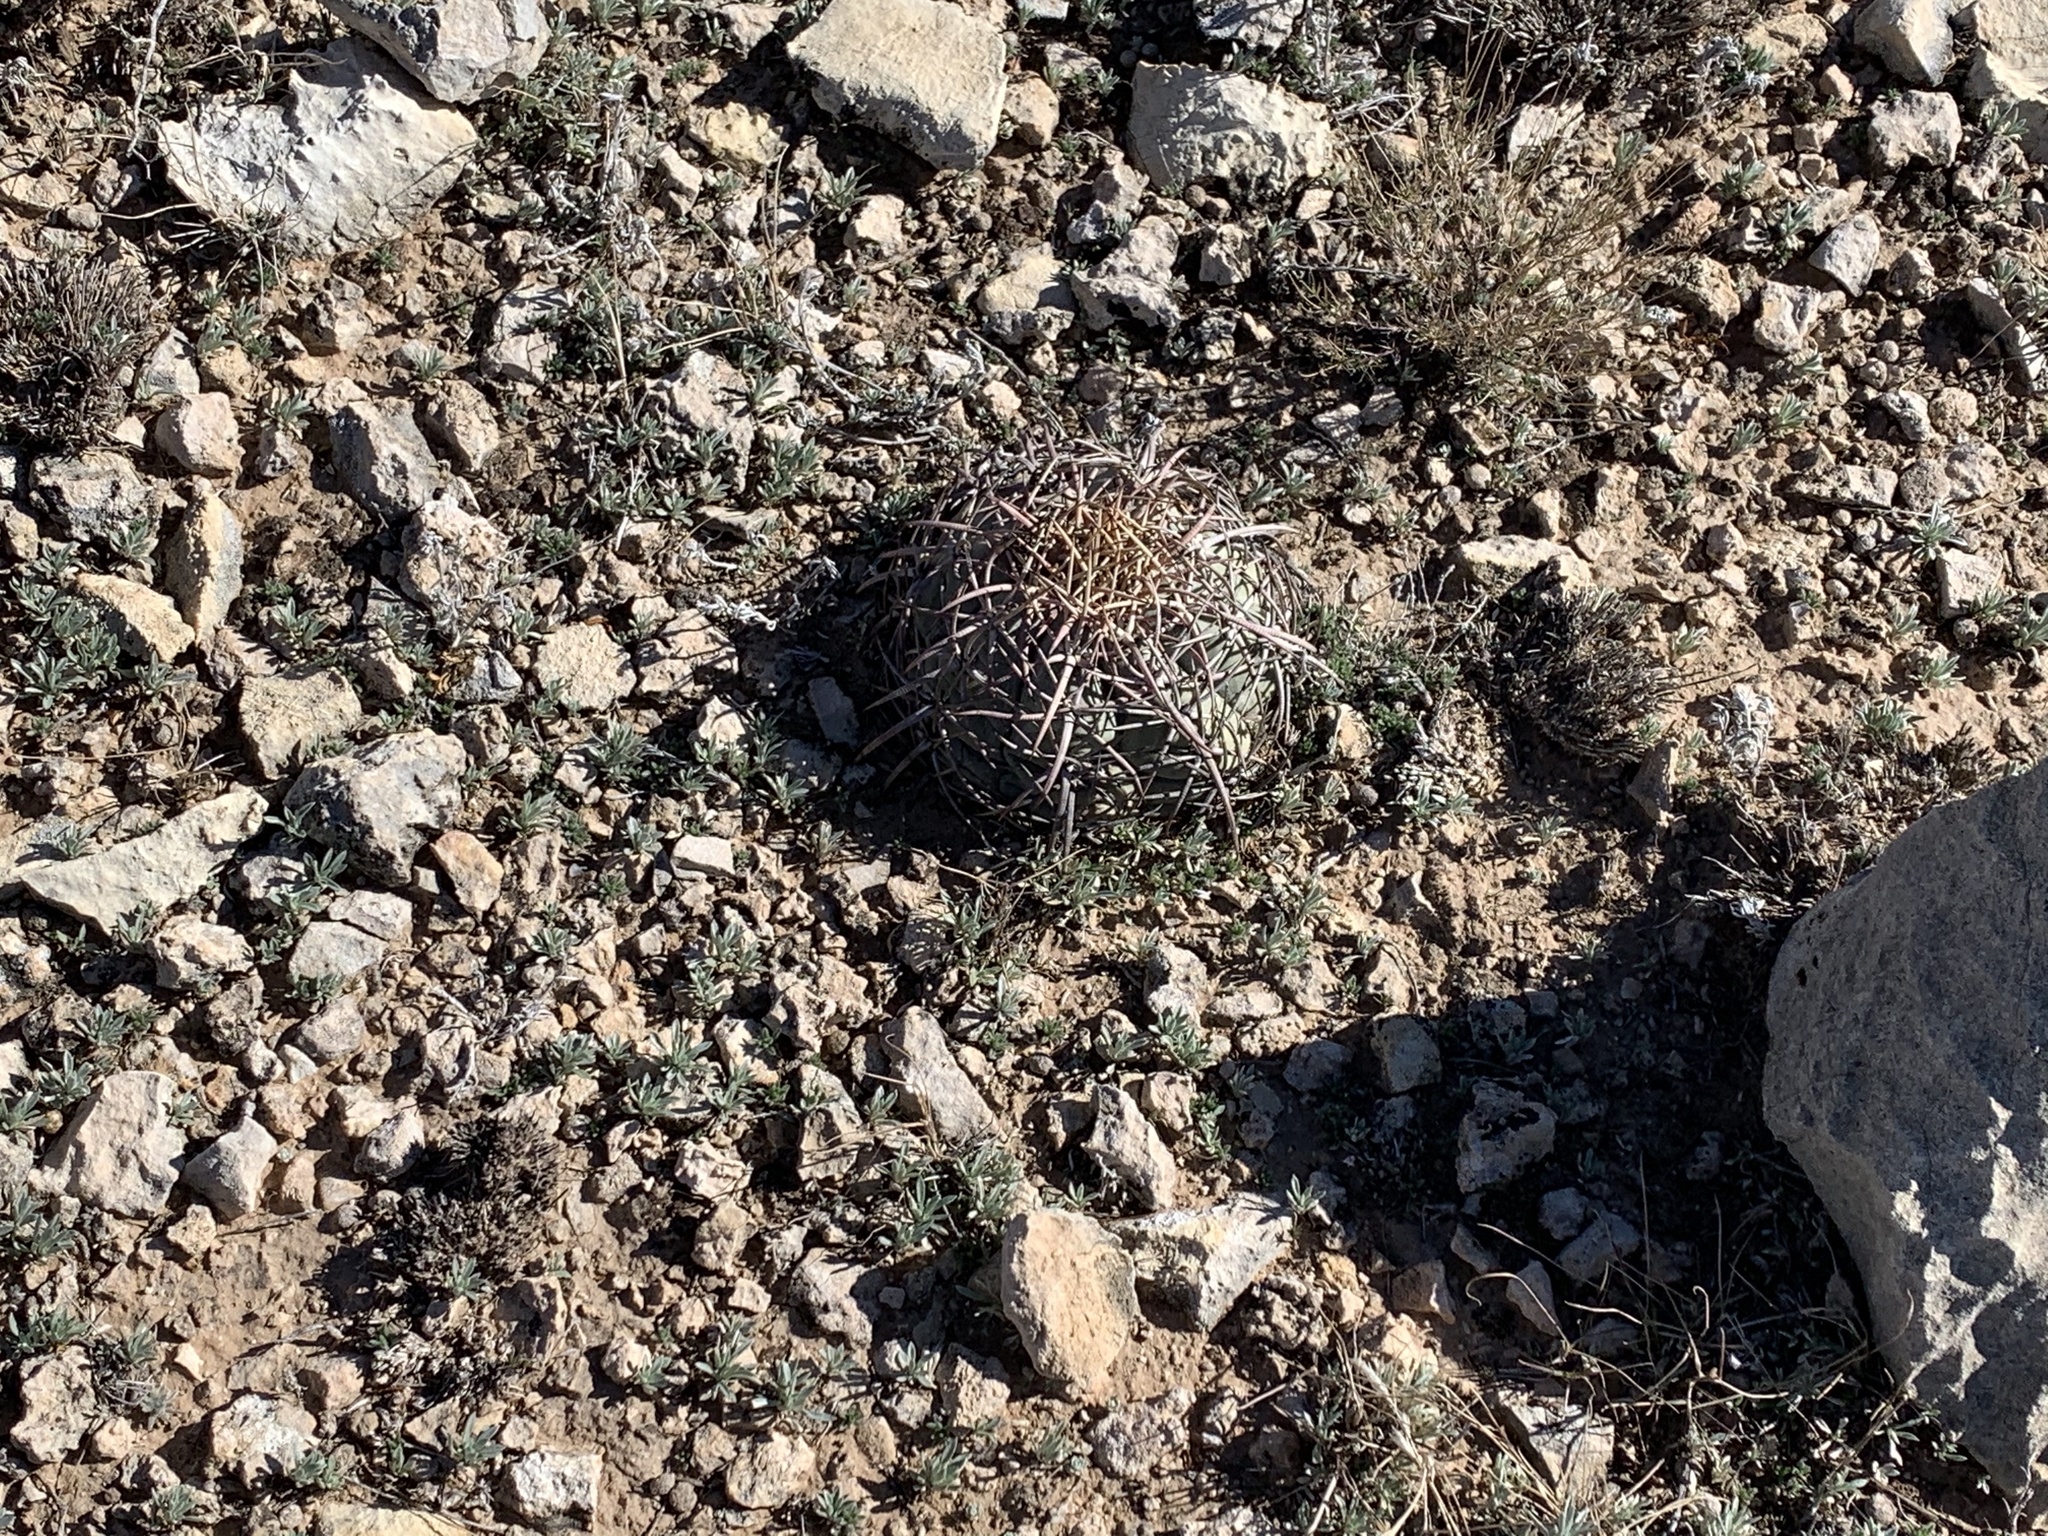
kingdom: Plantae
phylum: Tracheophyta
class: Magnoliopsida
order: Caryophyllales
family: Cactaceae
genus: Echinocactus
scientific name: Echinocactus horizonthalonius
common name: Devilshead
